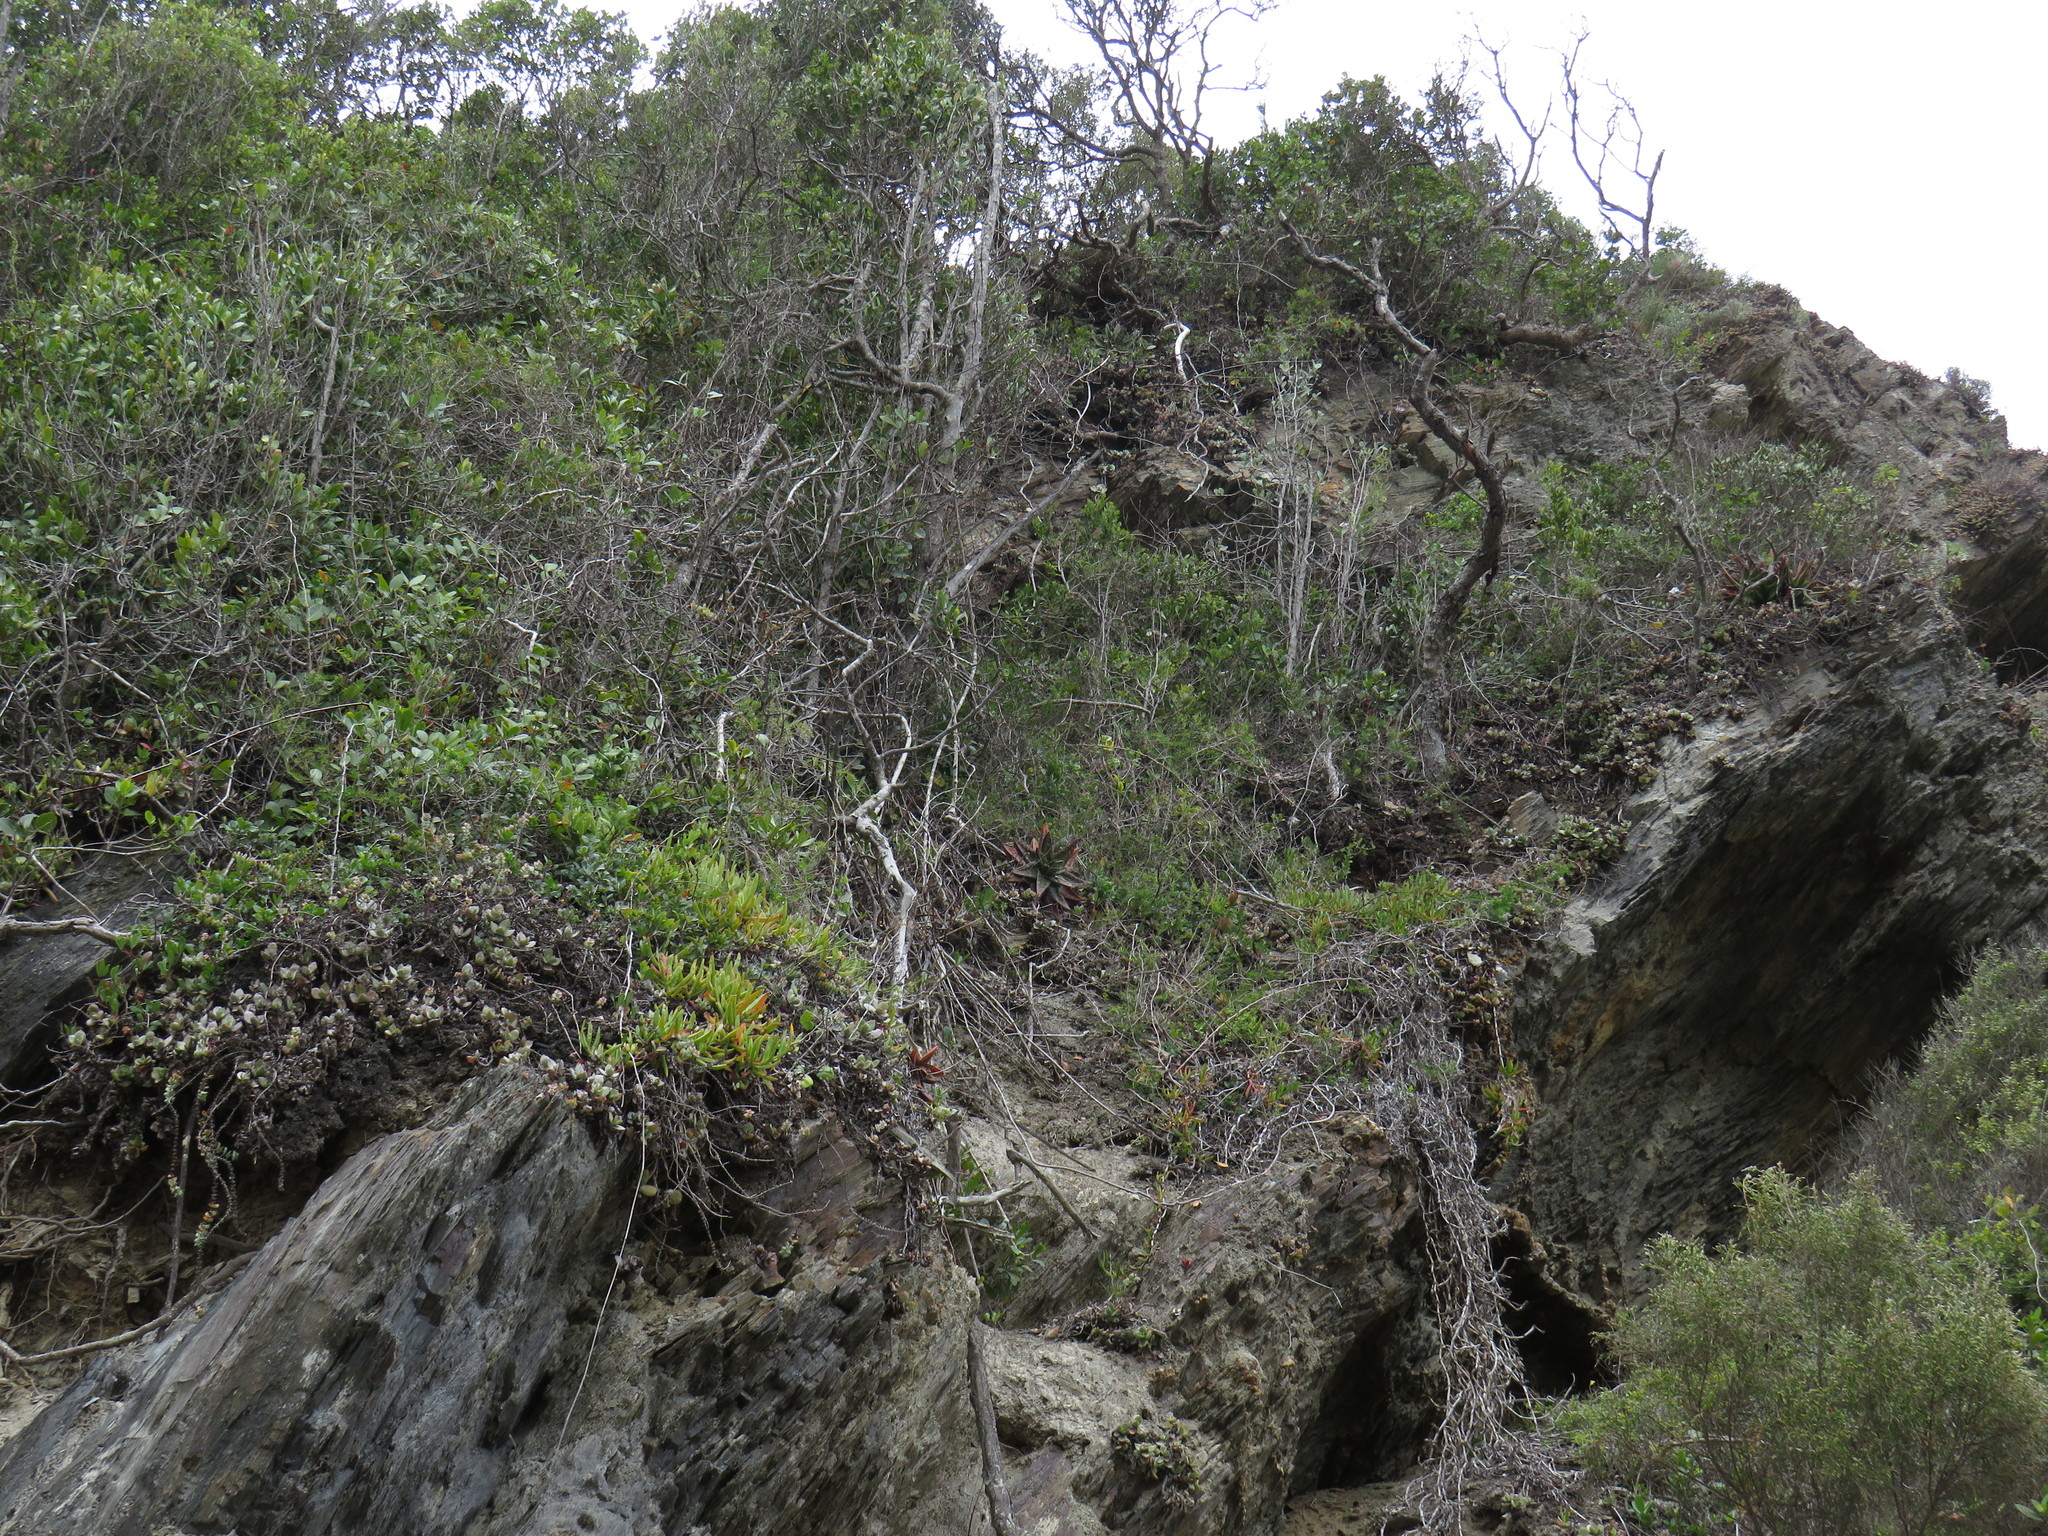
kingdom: Plantae
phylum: Tracheophyta
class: Liliopsida
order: Asparagales
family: Asphodelaceae
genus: Gasteria
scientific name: Gasteria polita
